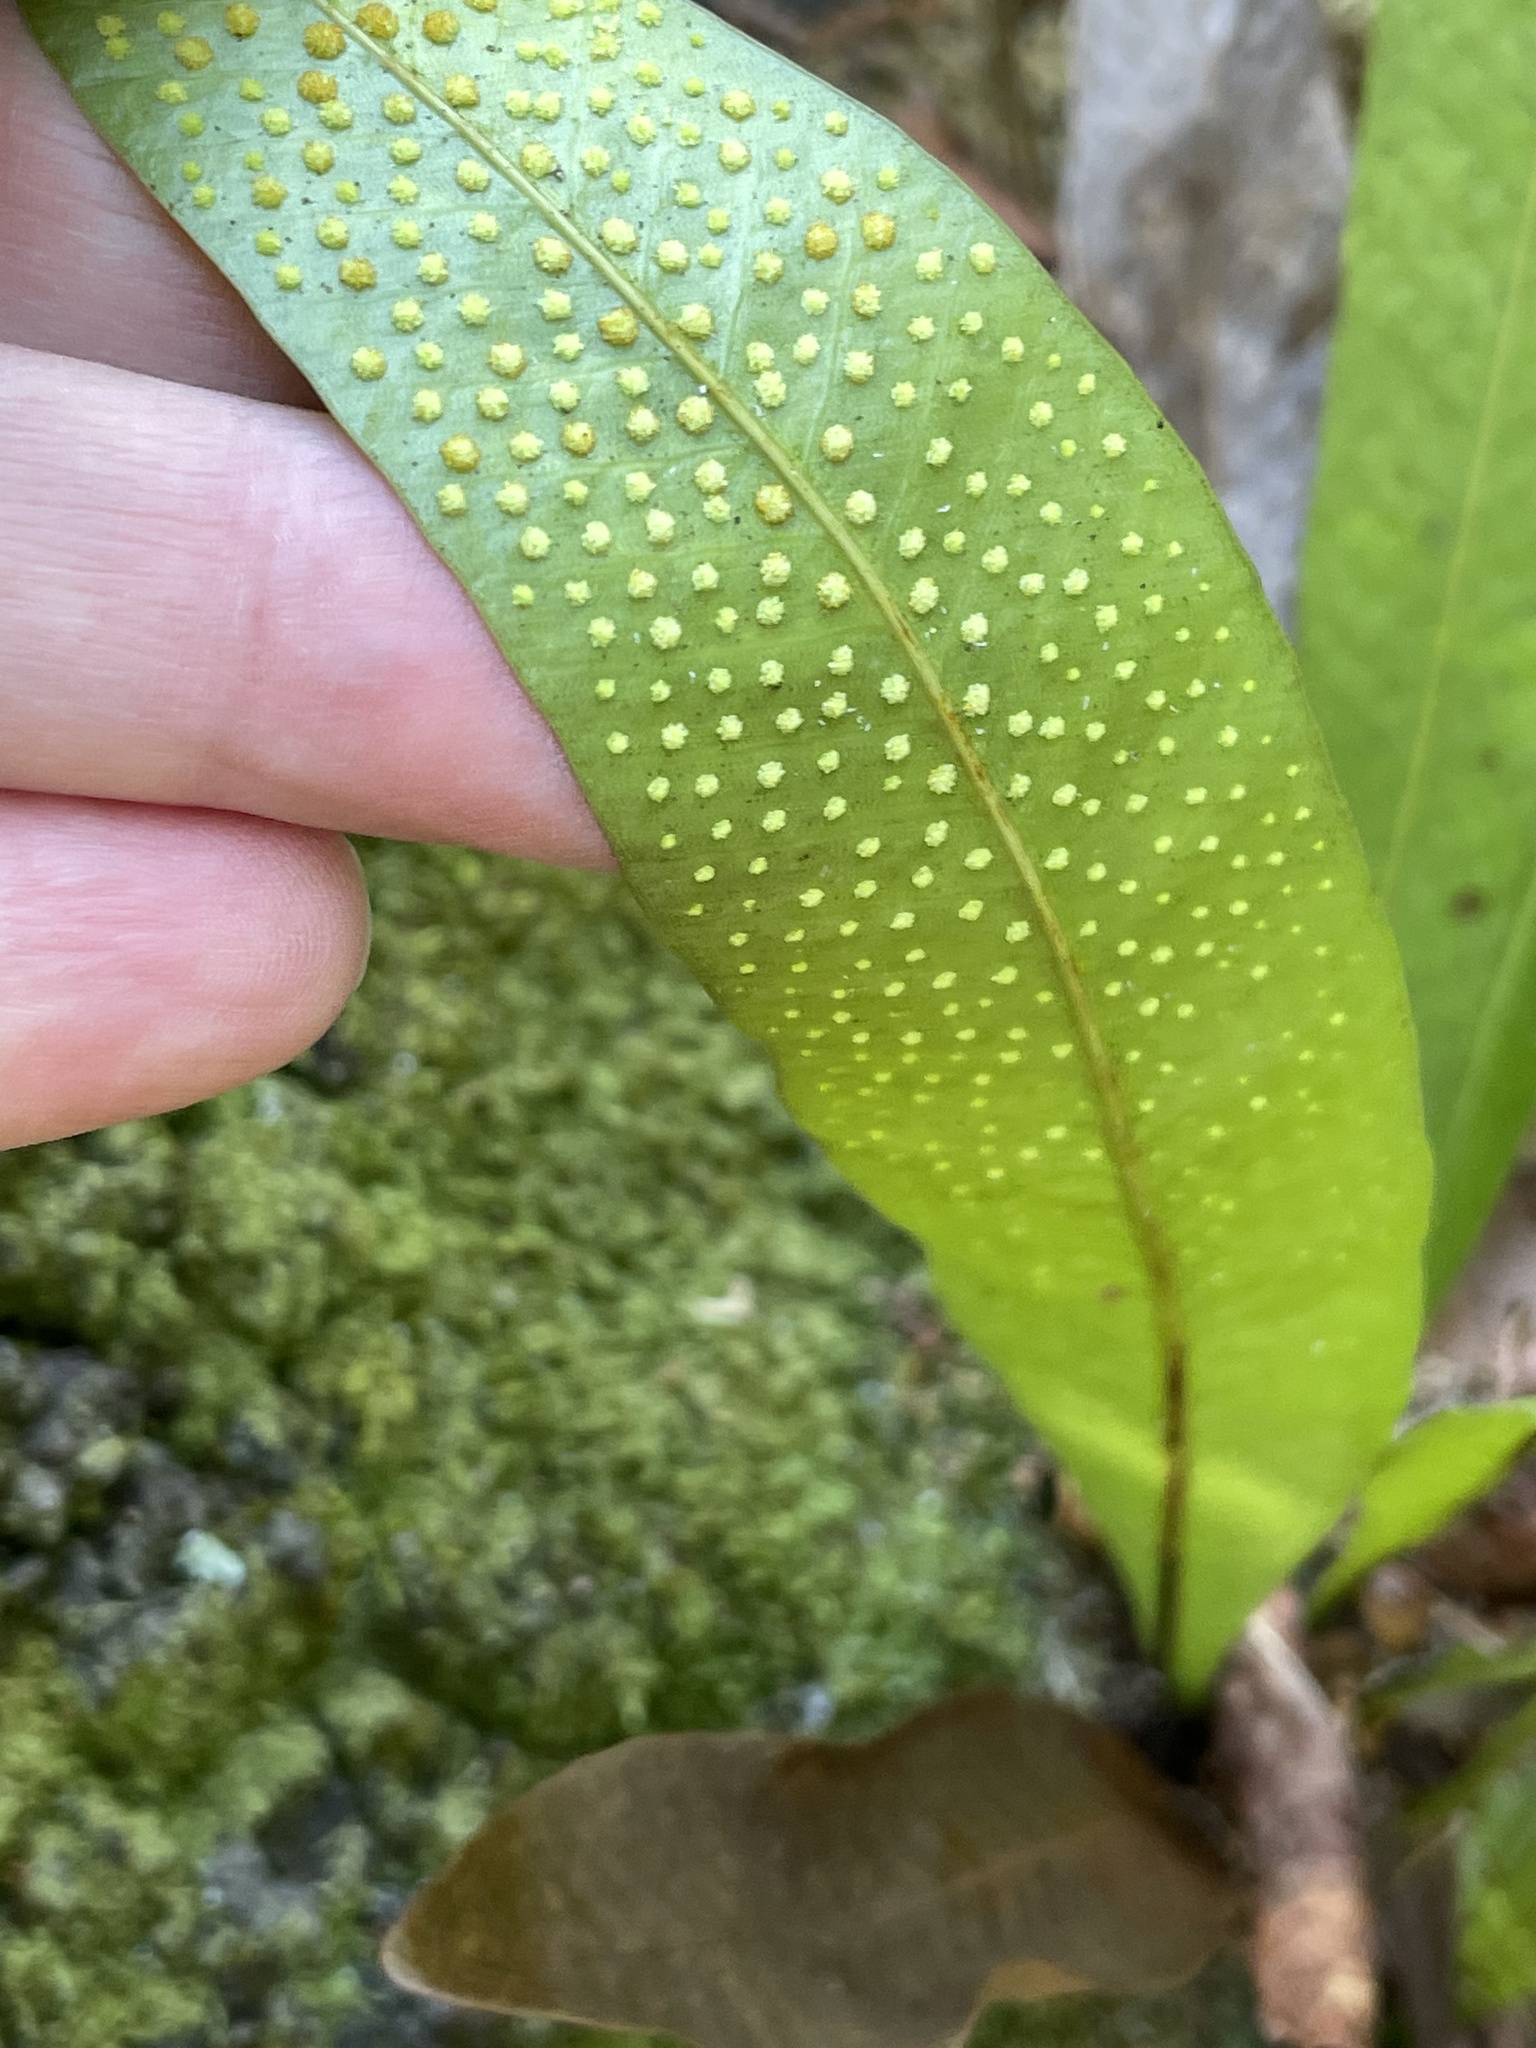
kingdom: Plantae
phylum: Tracheophyta
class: Polypodiopsida
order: Polypodiales
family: Polypodiaceae
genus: Campyloneurum
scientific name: Campyloneurum phyllitidis
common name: Cow-tongue fern
